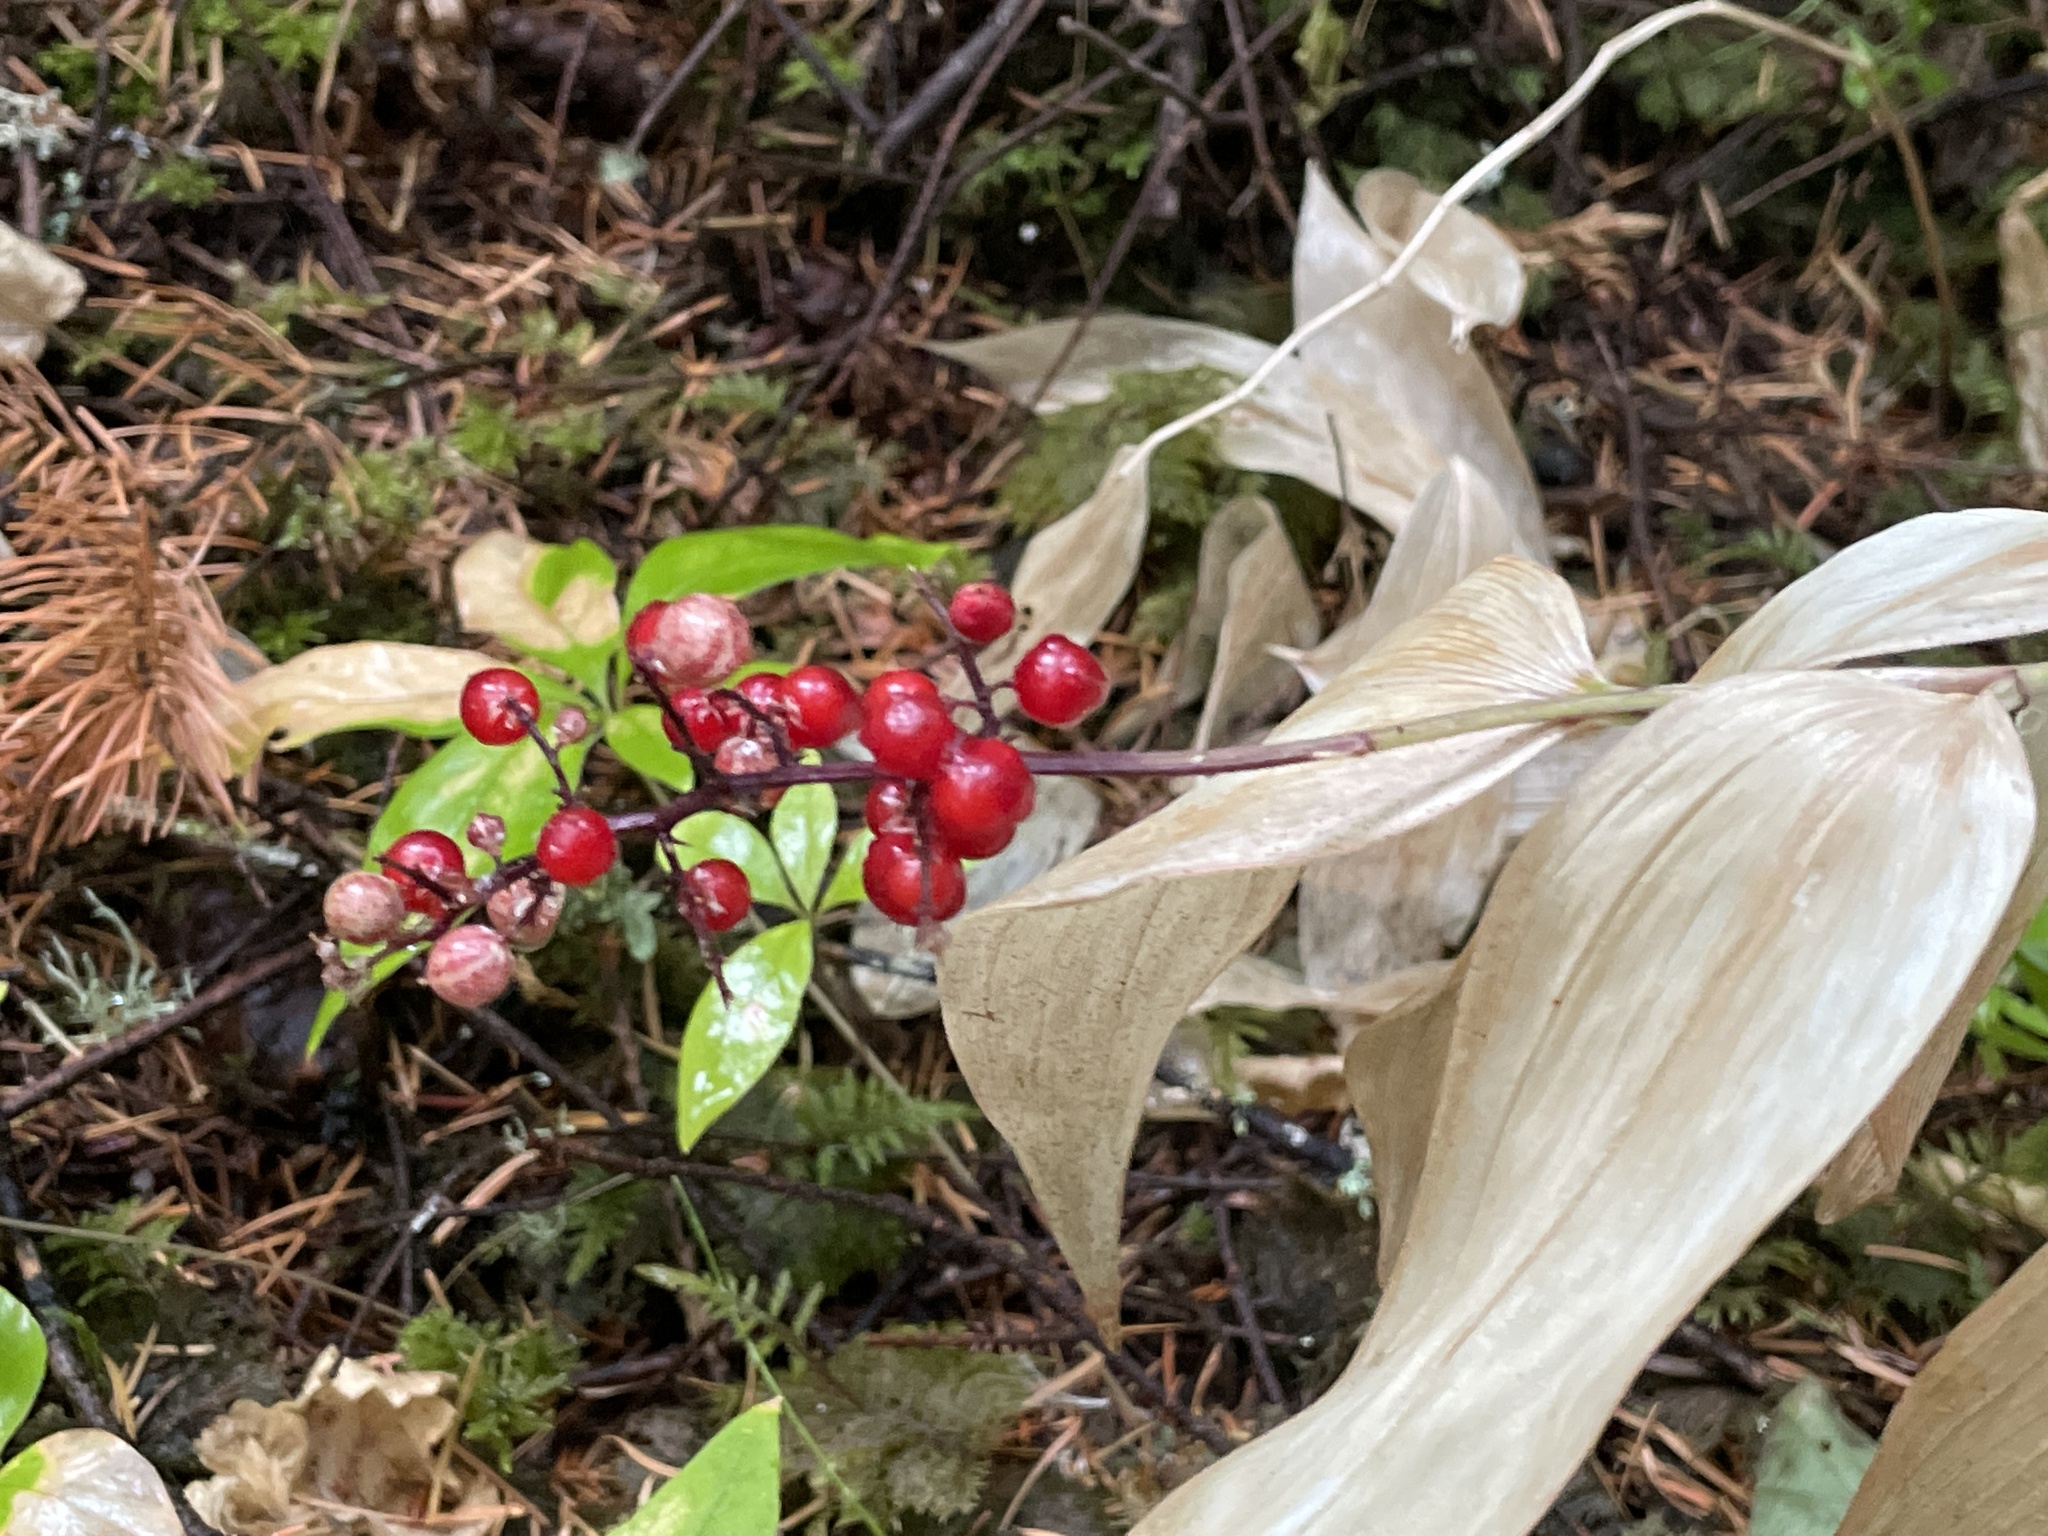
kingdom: Plantae
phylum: Tracheophyta
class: Liliopsida
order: Asparagales
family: Asparagaceae
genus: Maianthemum
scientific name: Maianthemum racemosum
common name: False spikenard
